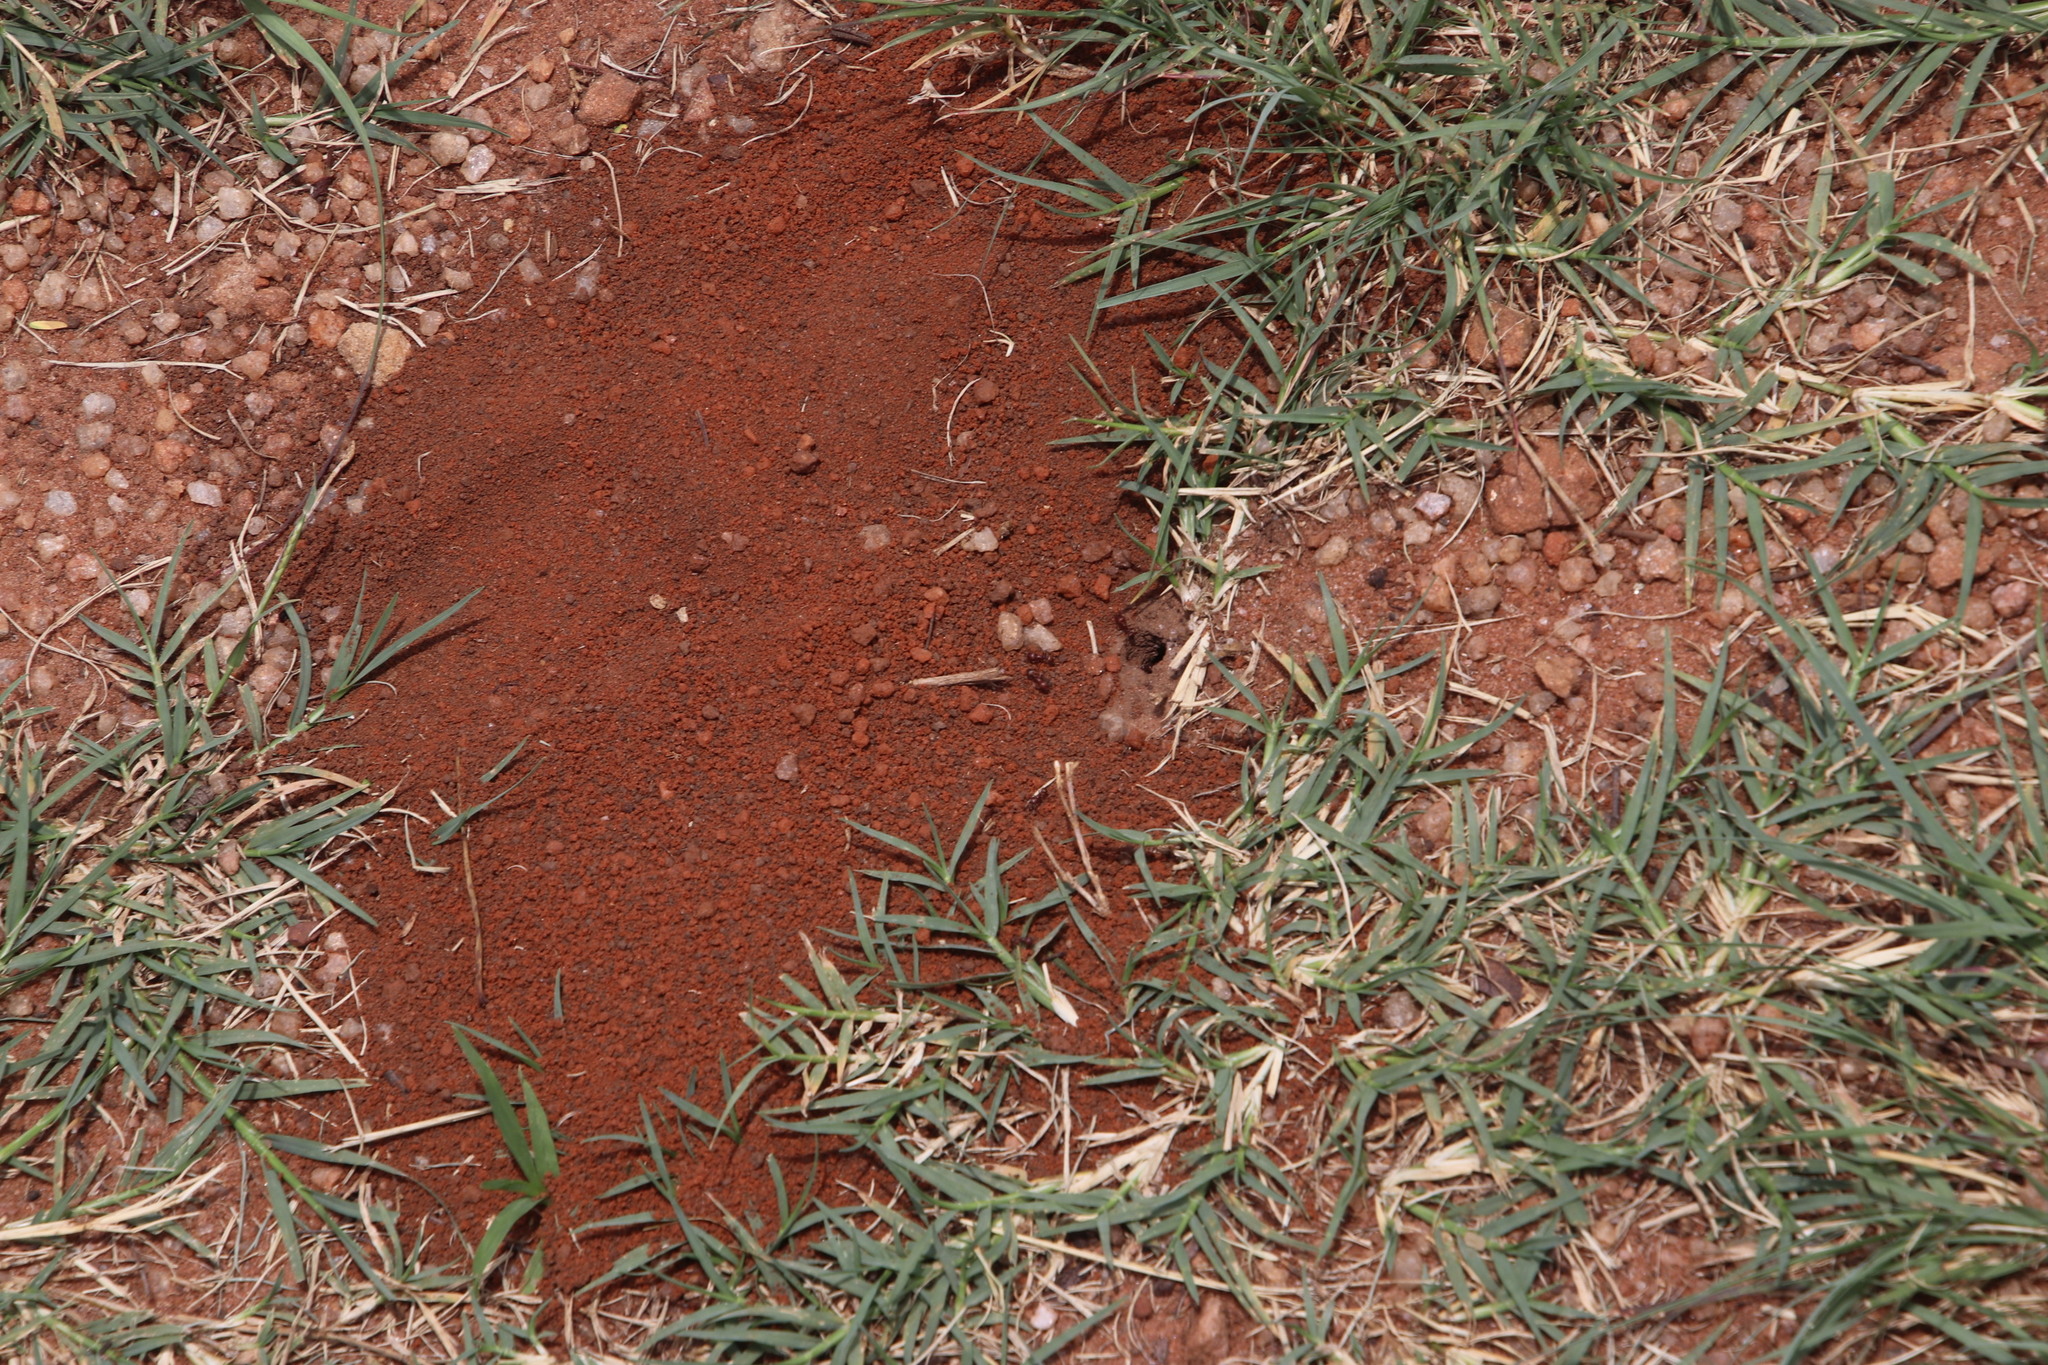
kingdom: Animalia
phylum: Arthropoda
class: Insecta
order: Hymenoptera
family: Formicidae
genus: Tetramorium
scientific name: Tetramorium setuliferum
